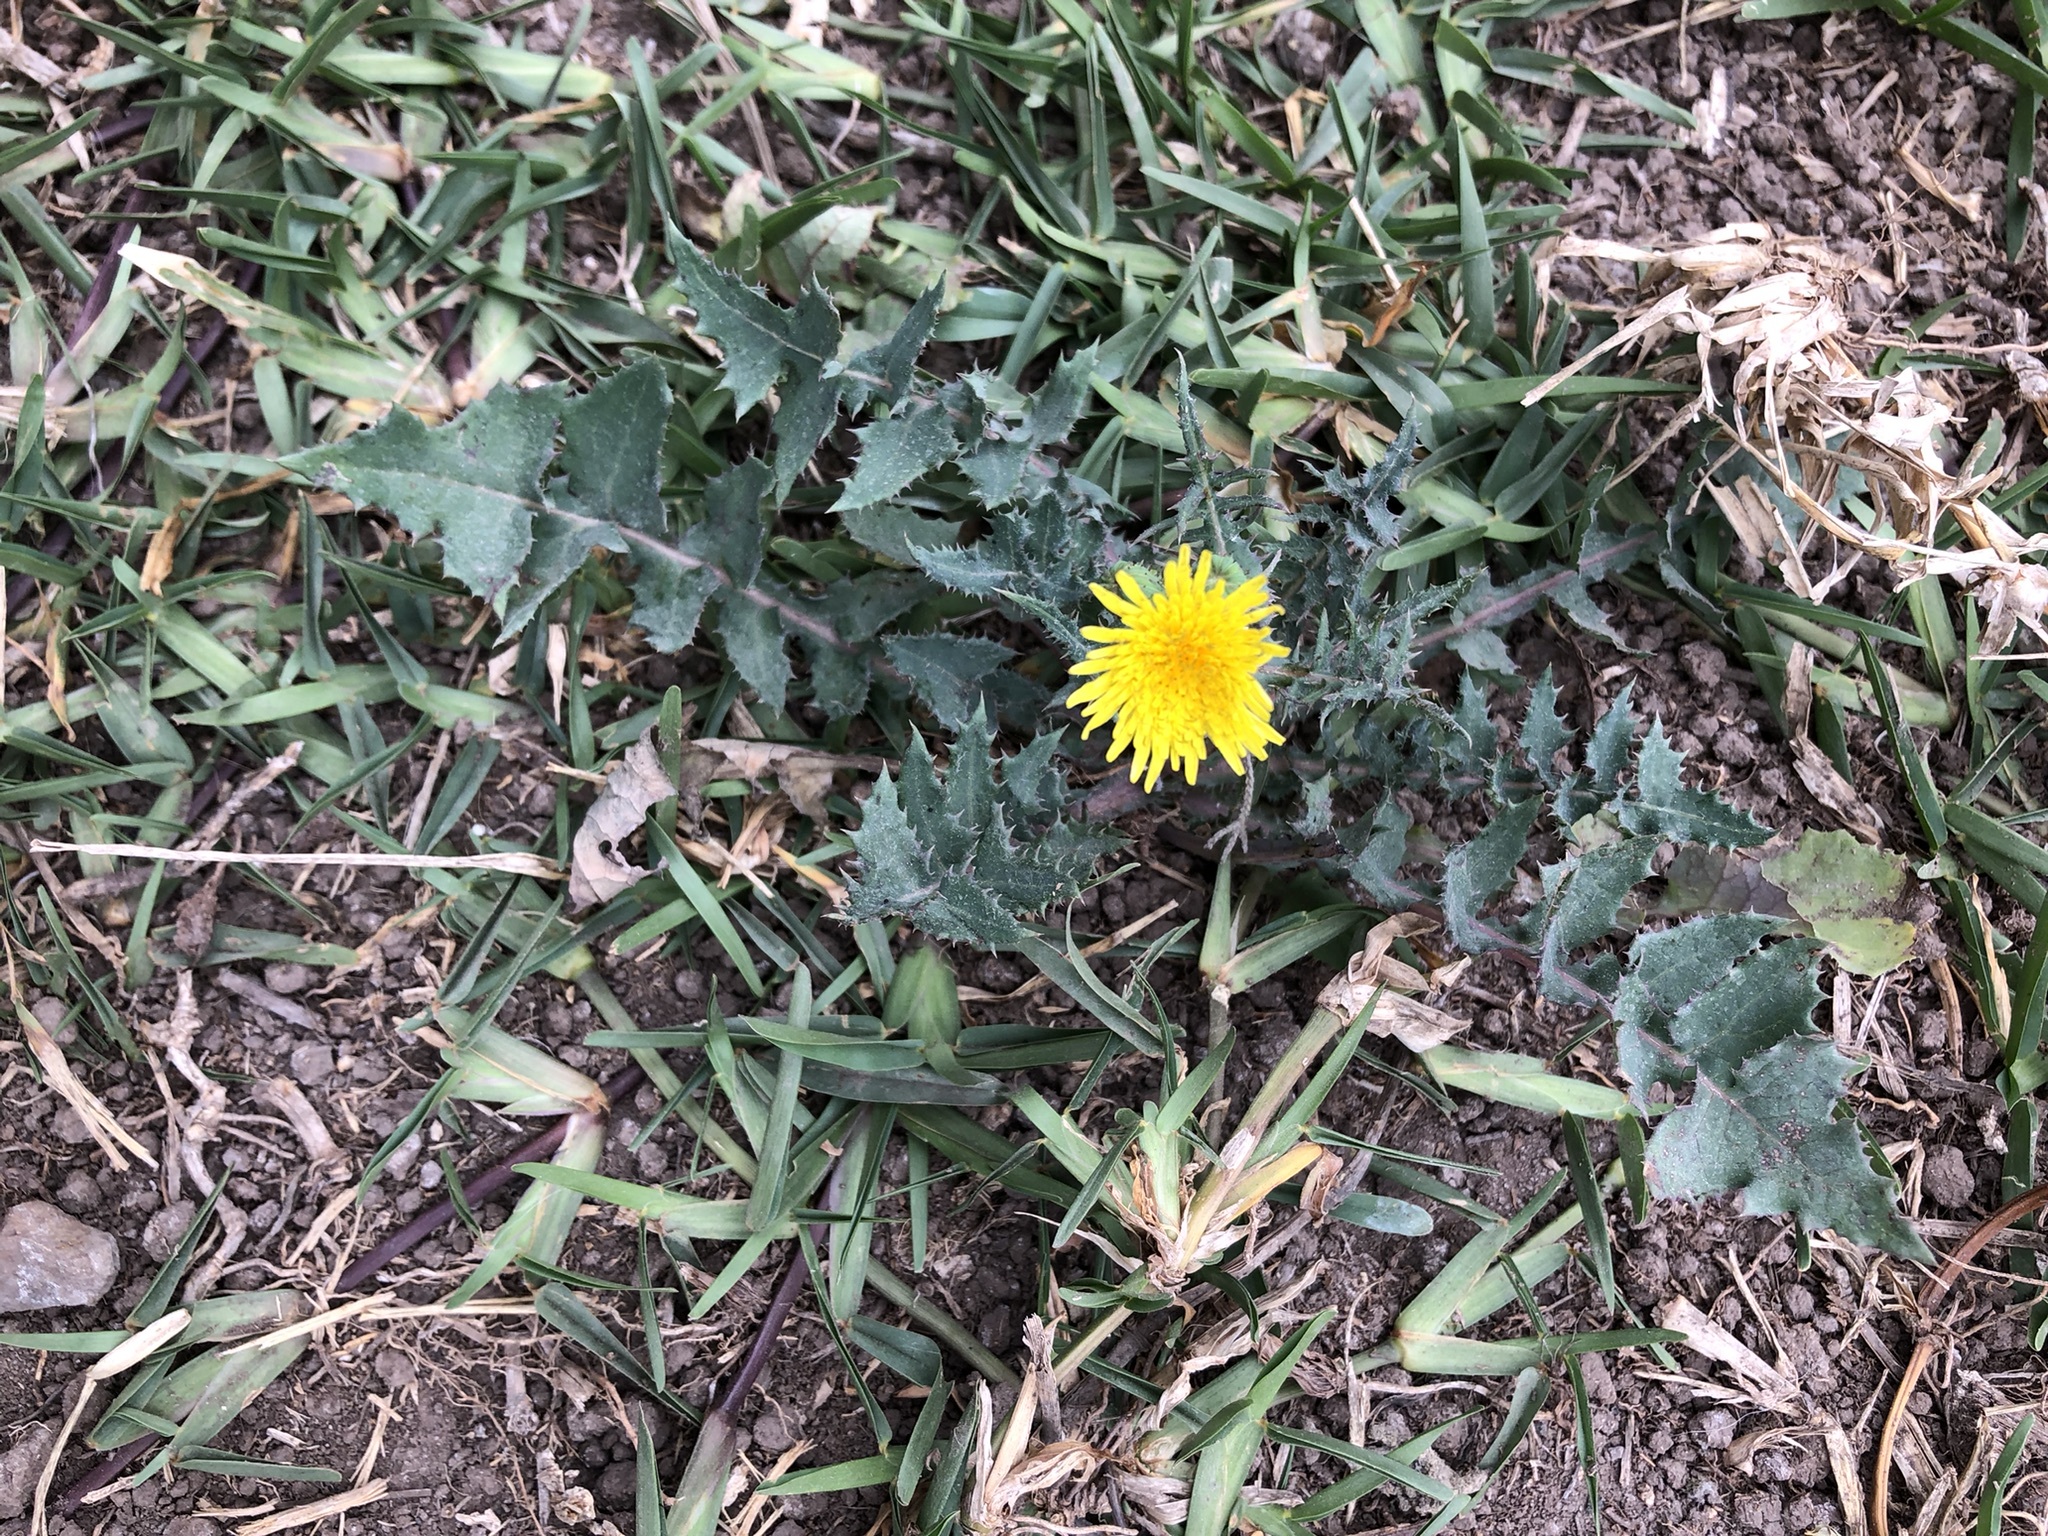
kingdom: Plantae
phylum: Tracheophyta
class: Magnoliopsida
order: Asterales
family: Asteraceae
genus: Taraxacum
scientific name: Taraxacum officinale
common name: Common dandelion
